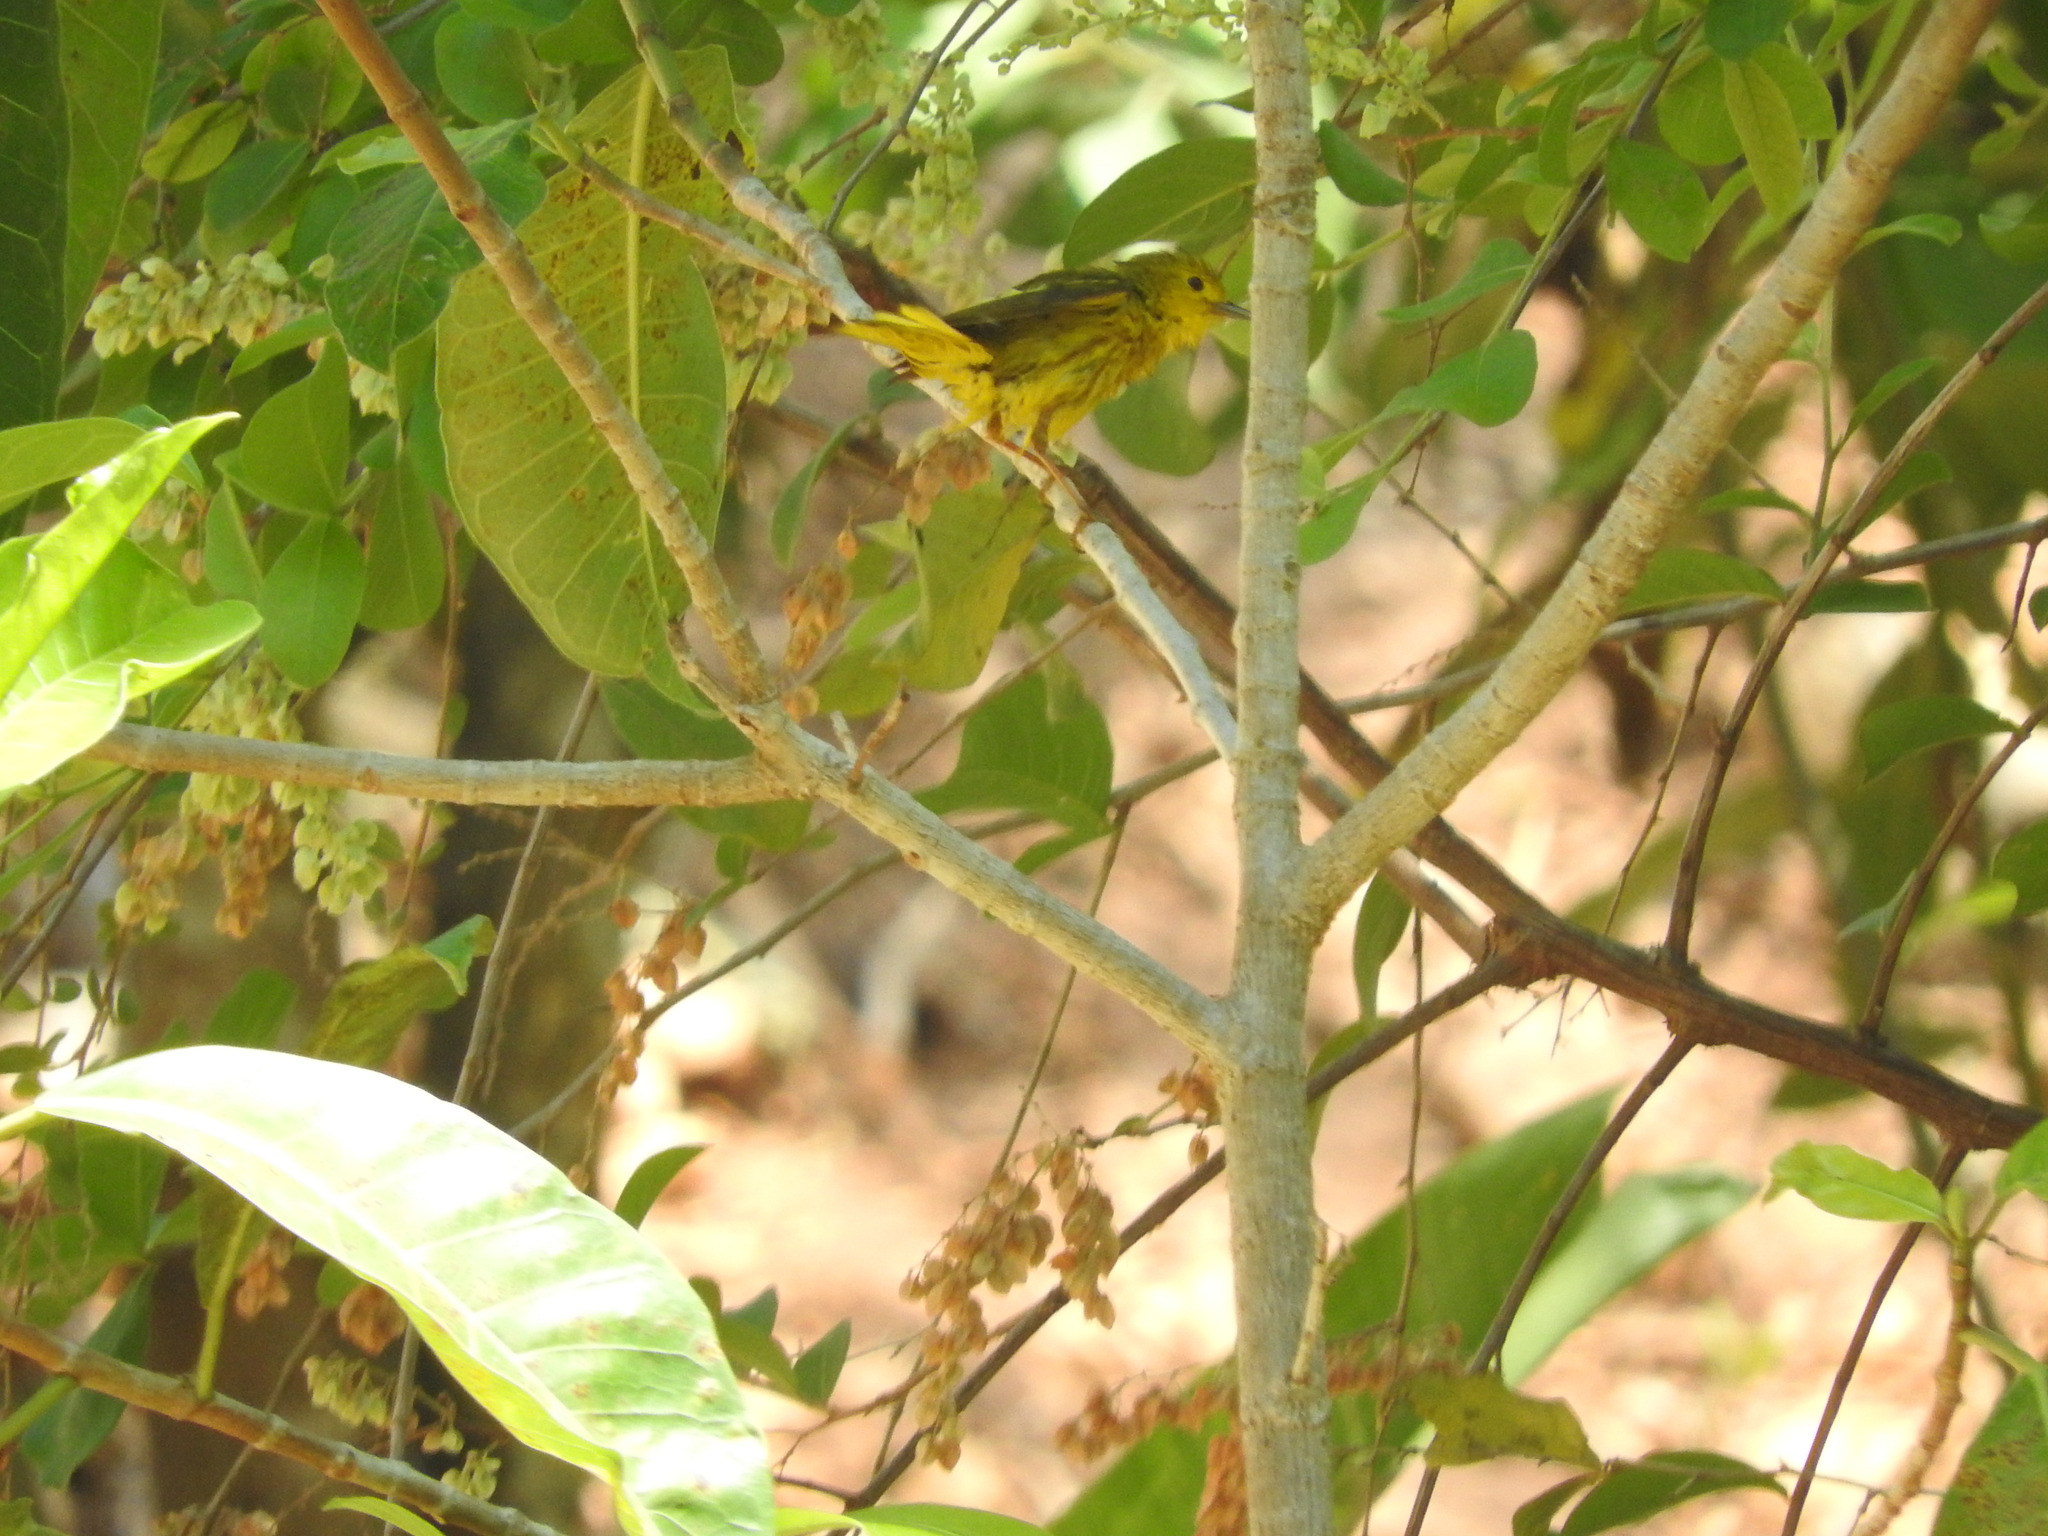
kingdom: Animalia
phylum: Chordata
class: Aves
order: Passeriformes
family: Parulidae
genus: Setophaga
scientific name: Setophaga petechia
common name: Yellow warbler
